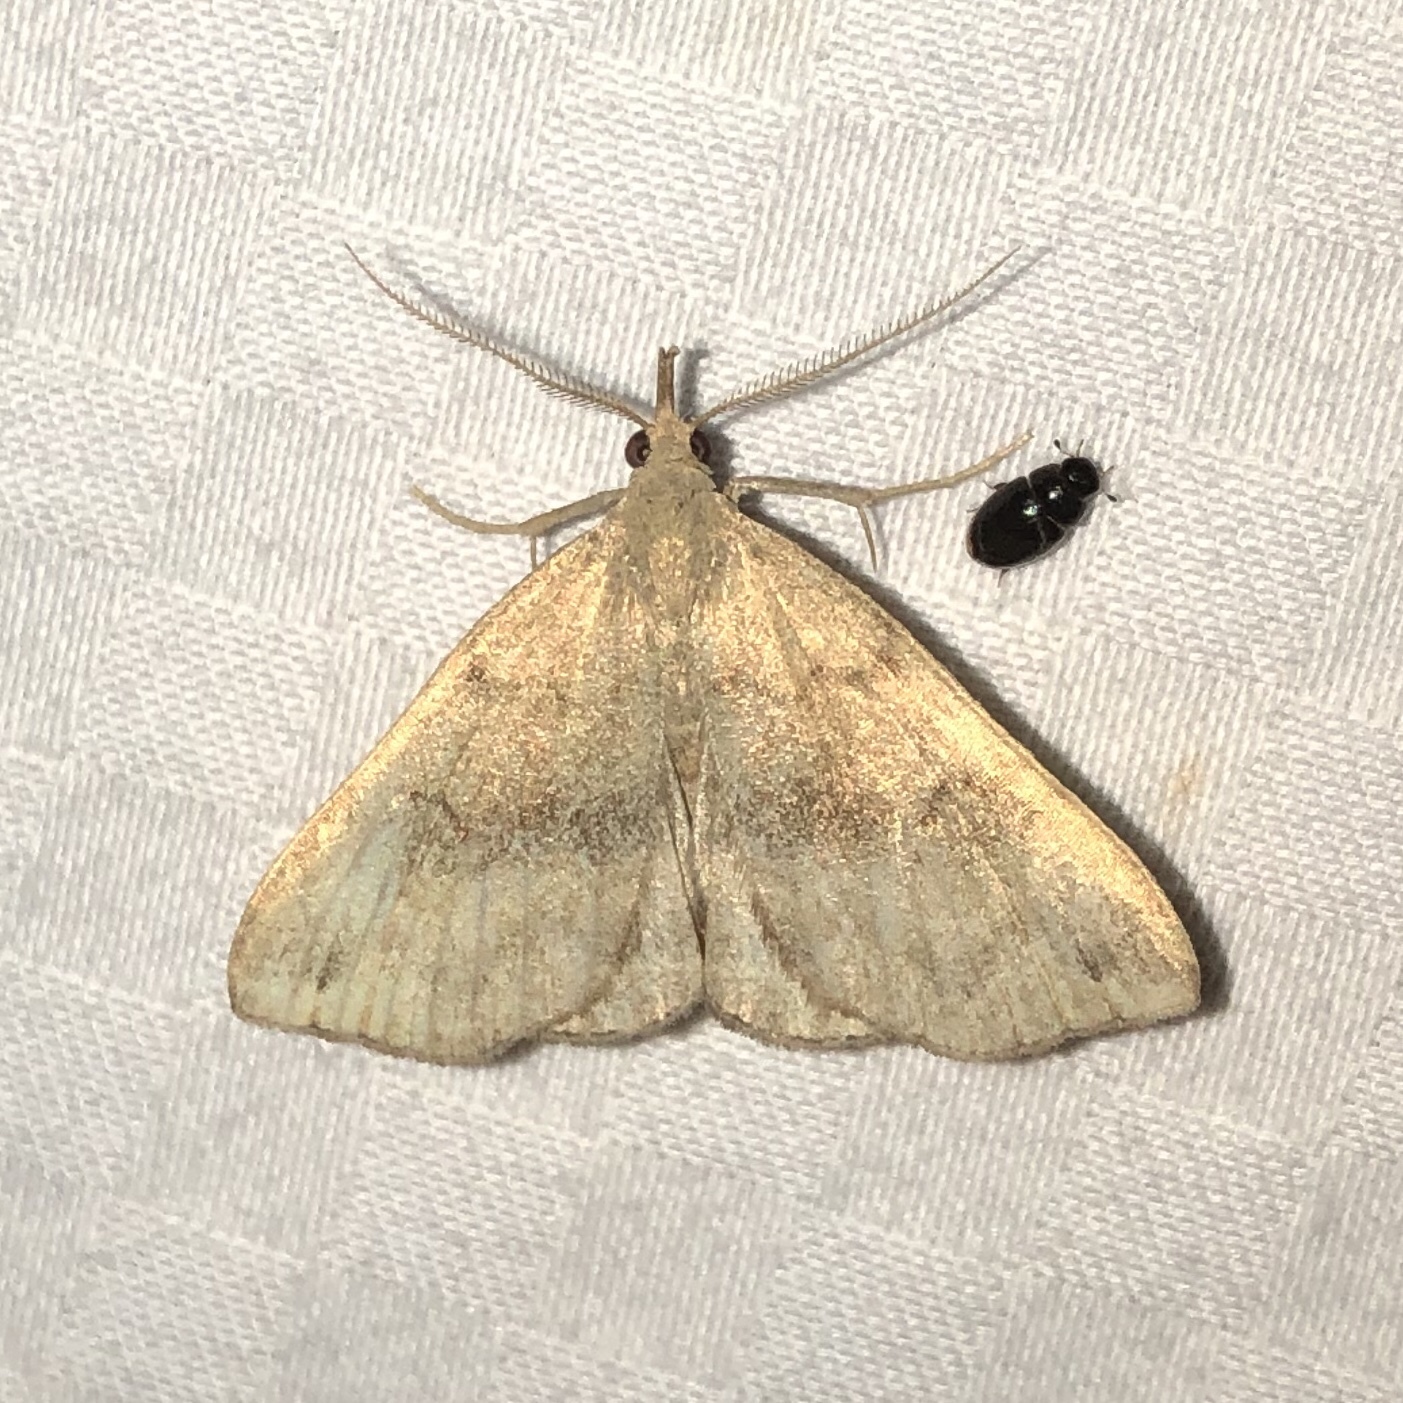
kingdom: Animalia
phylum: Arthropoda
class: Insecta
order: Lepidoptera
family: Erebidae
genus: Phalaenostola
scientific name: Phalaenostola eumelusalis
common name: Dark phalaenostola moth
